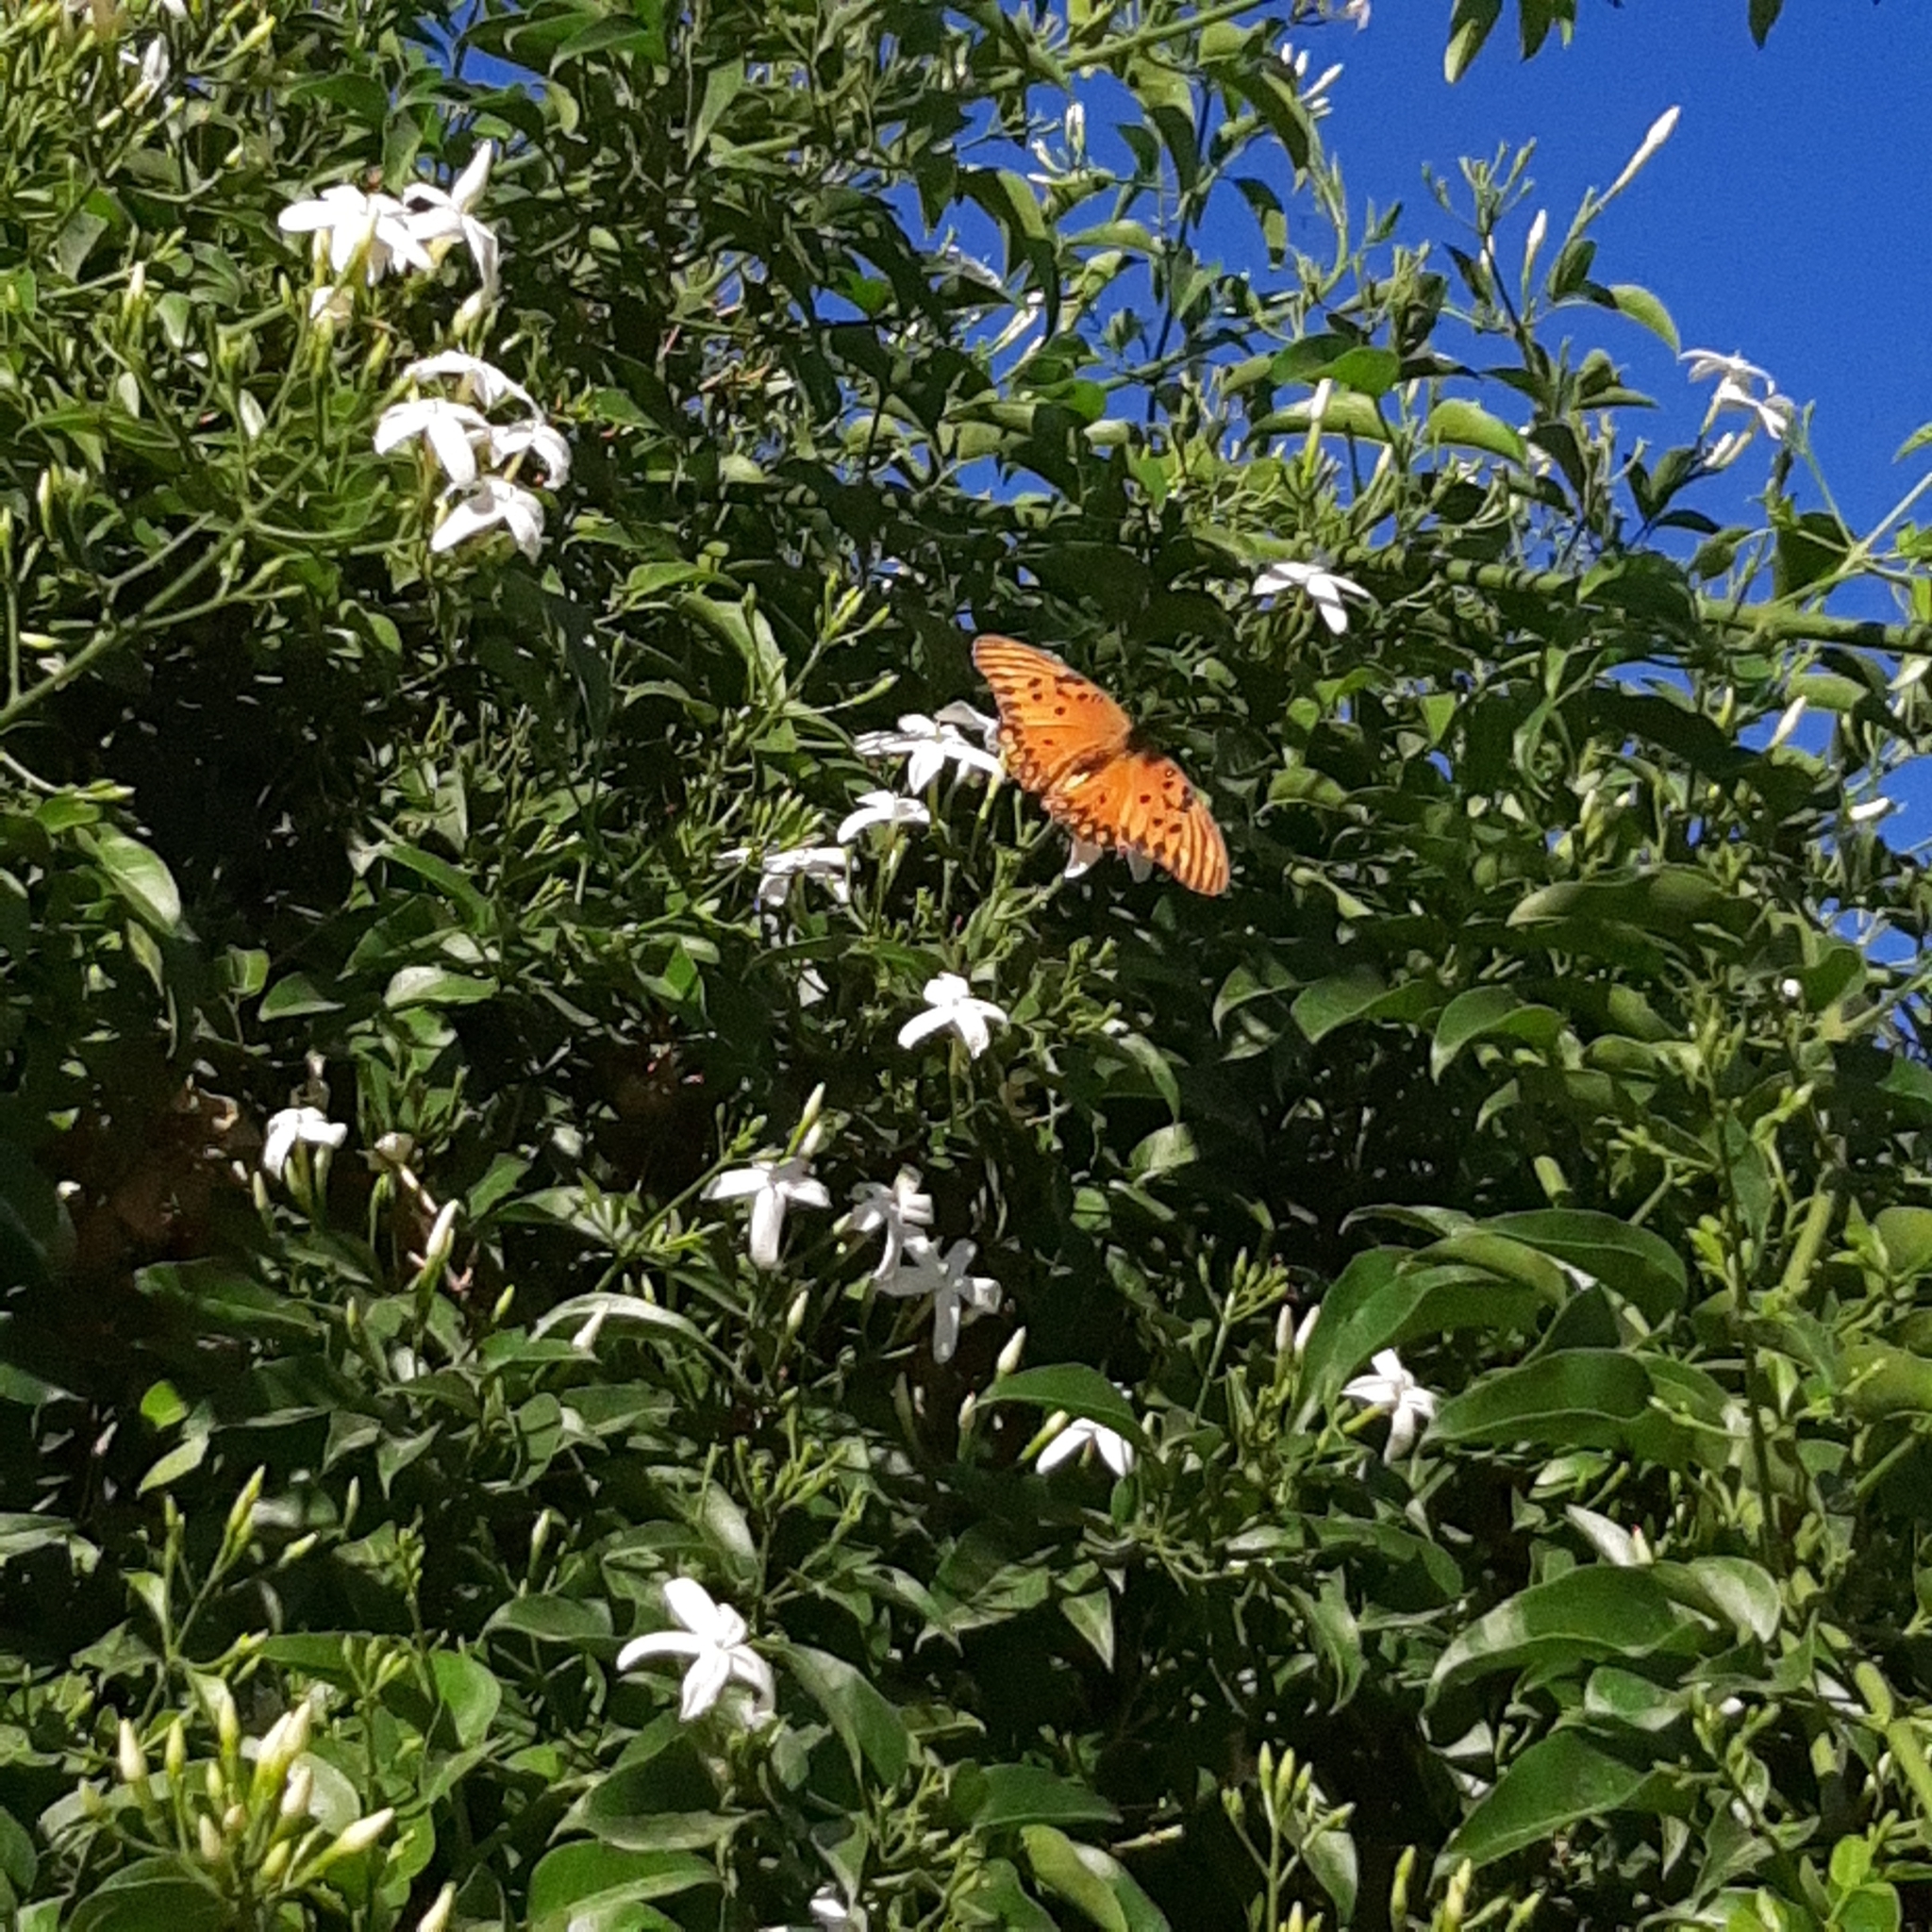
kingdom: Animalia
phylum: Arthropoda
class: Insecta
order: Lepidoptera
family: Nymphalidae
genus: Dione
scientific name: Dione vanillae
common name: Gulf fritillary
